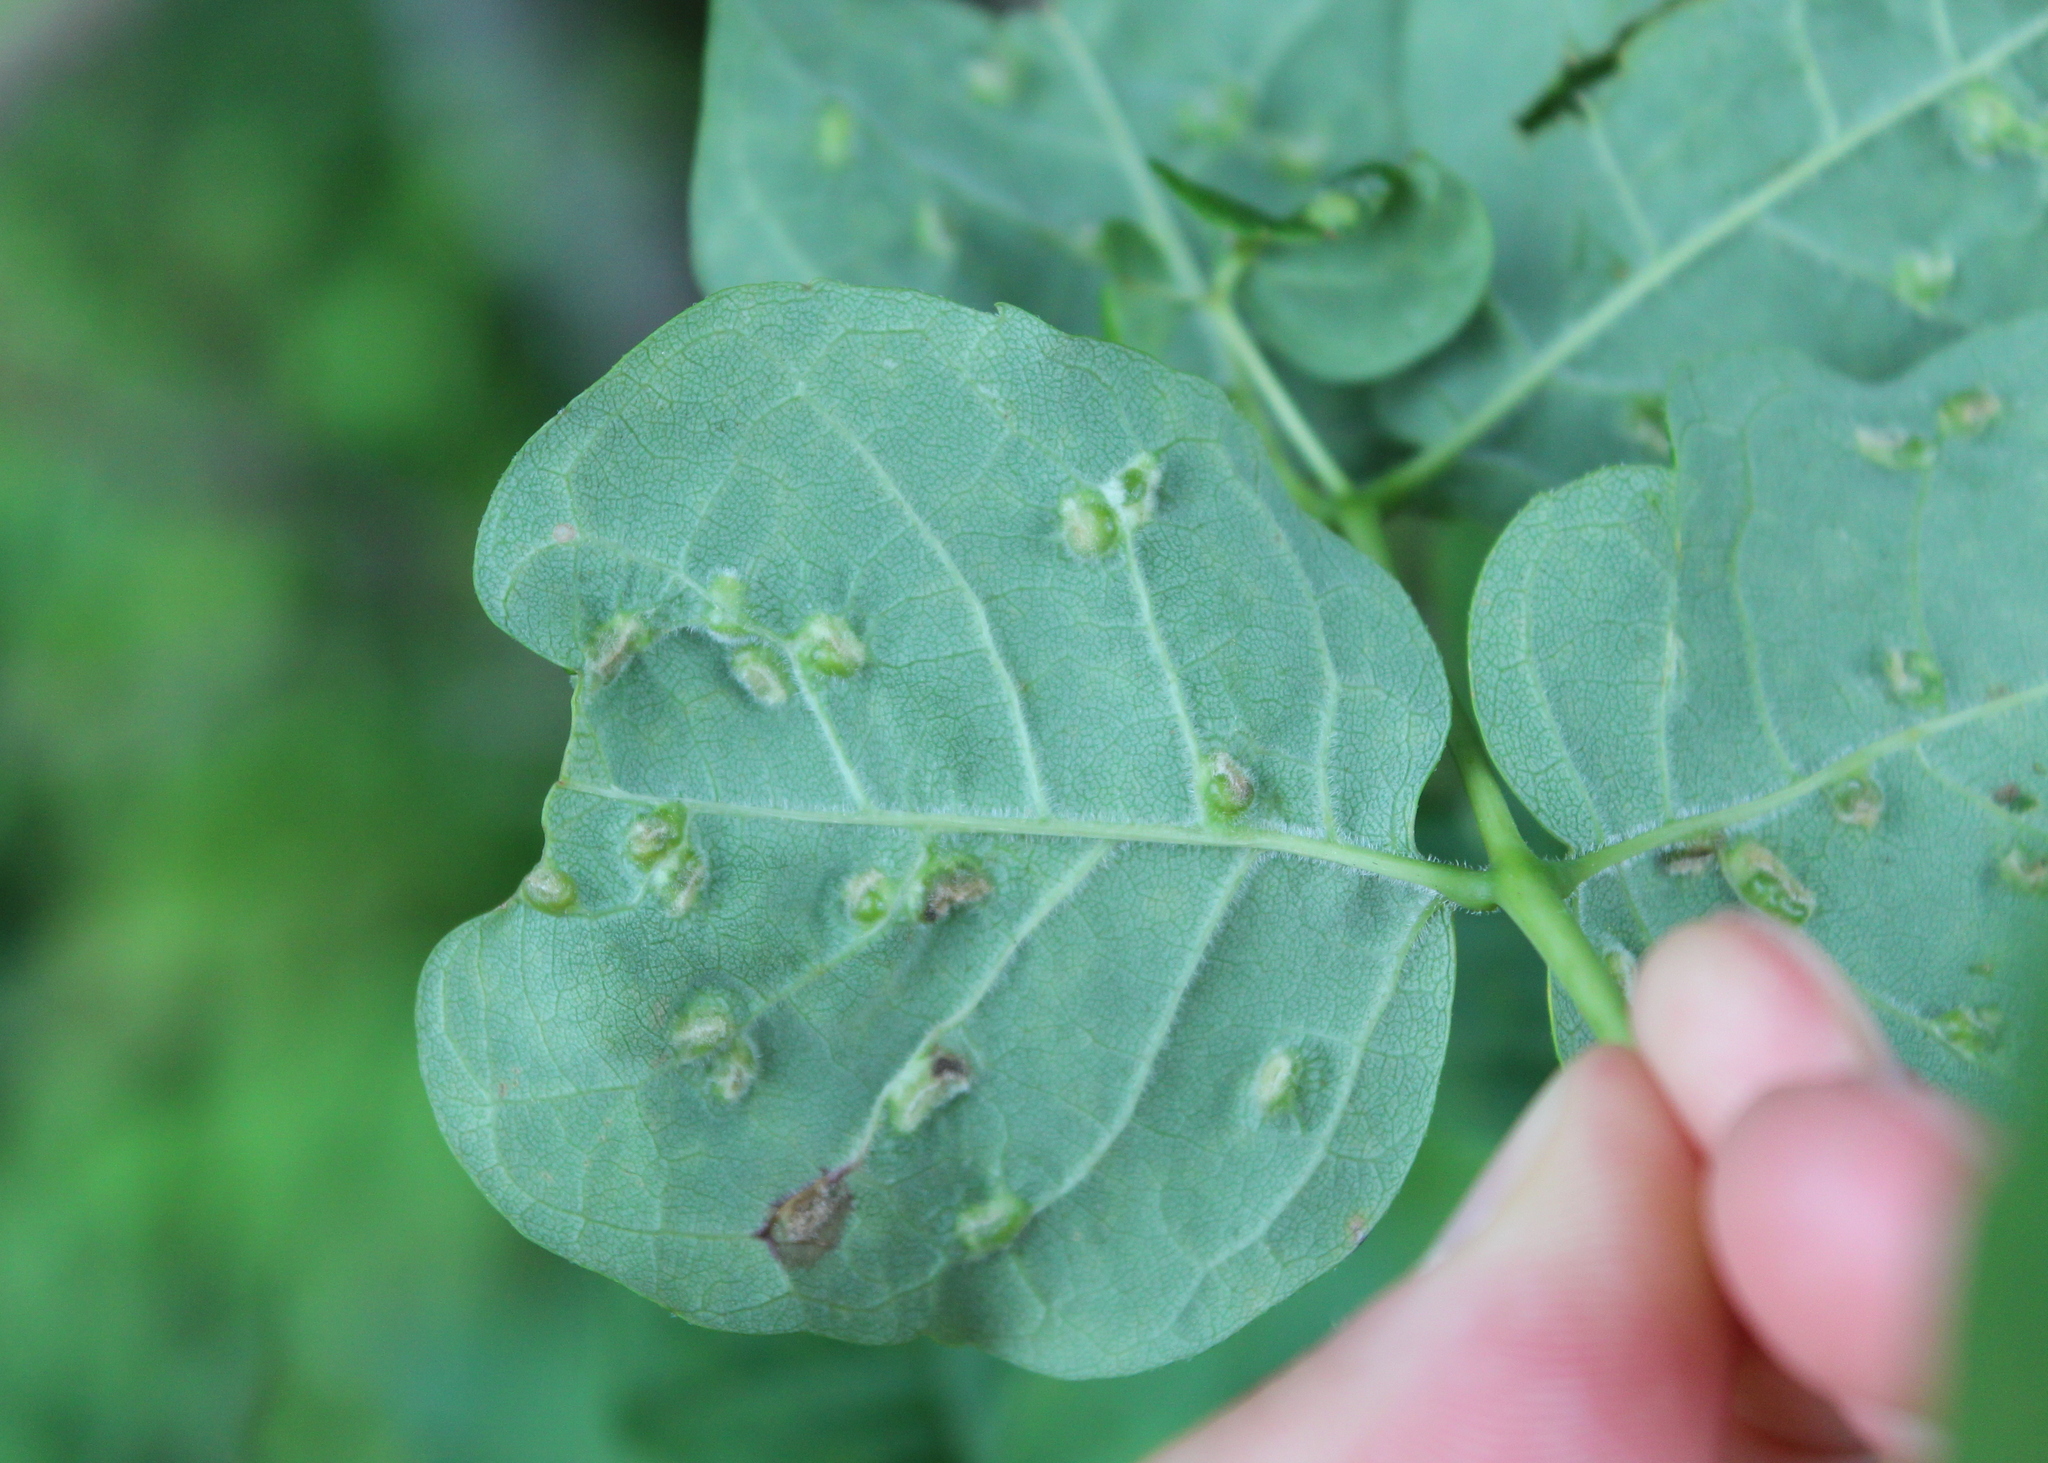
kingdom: Animalia
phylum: Arthropoda
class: Arachnida
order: Trombidiformes
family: Eriophyidae
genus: Aceria
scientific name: Aceria fraxinicola
